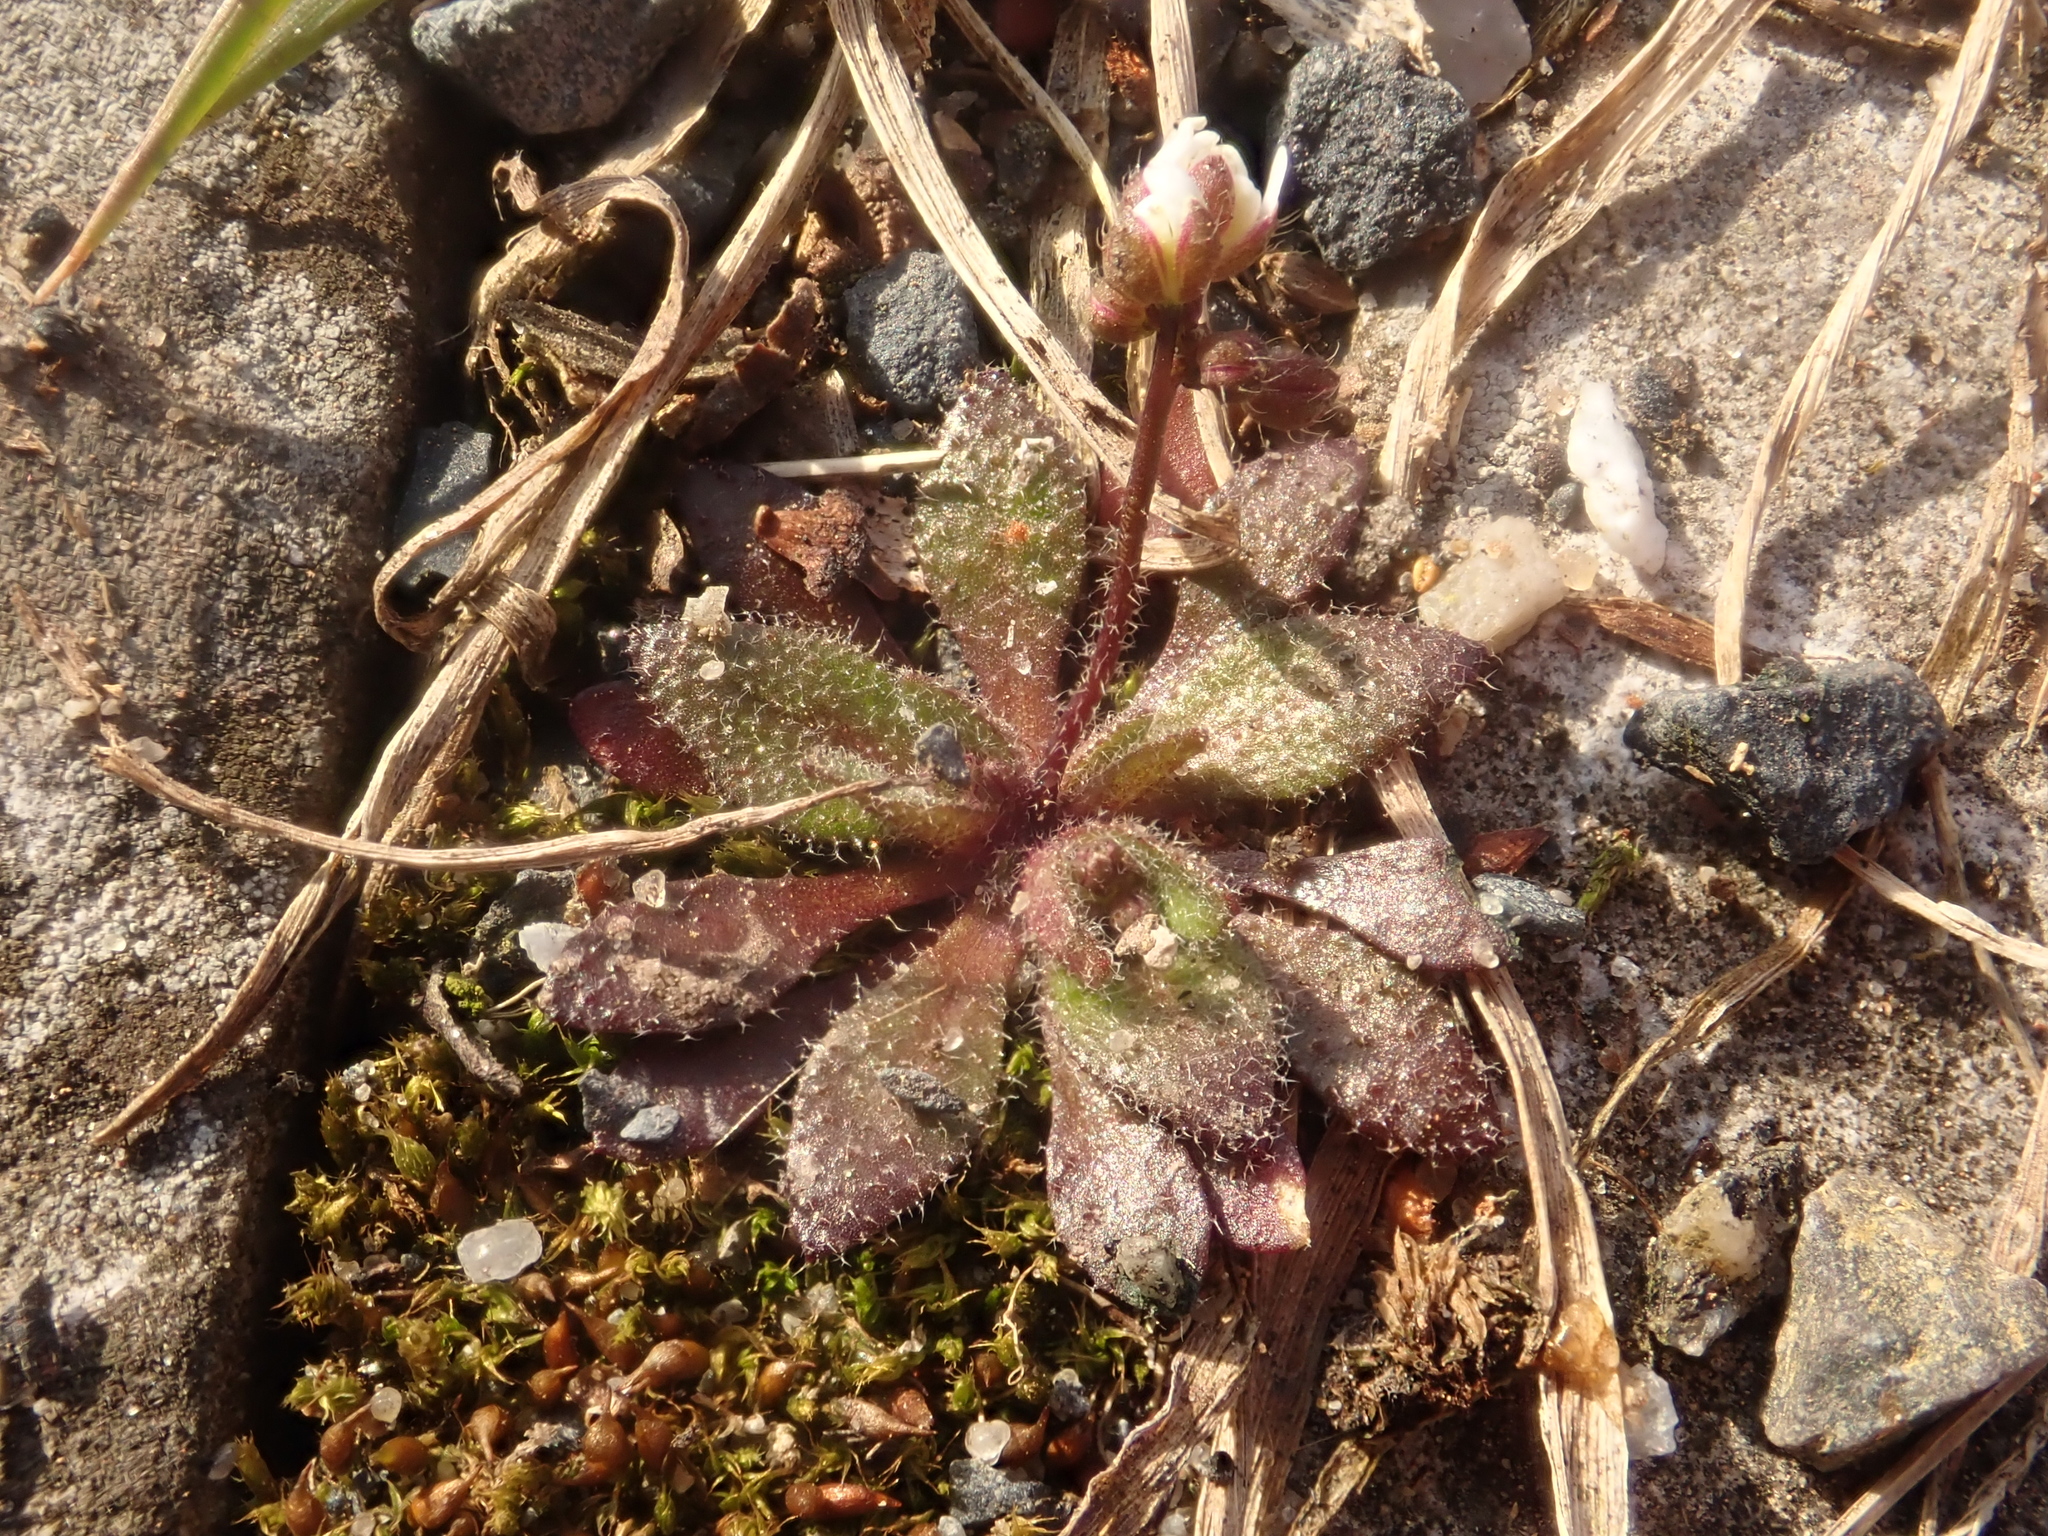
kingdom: Plantae
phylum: Tracheophyta
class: Magnoliopsida
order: Brassicales
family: Brassicaceae
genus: Draba
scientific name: Draba verna
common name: Spring draba
